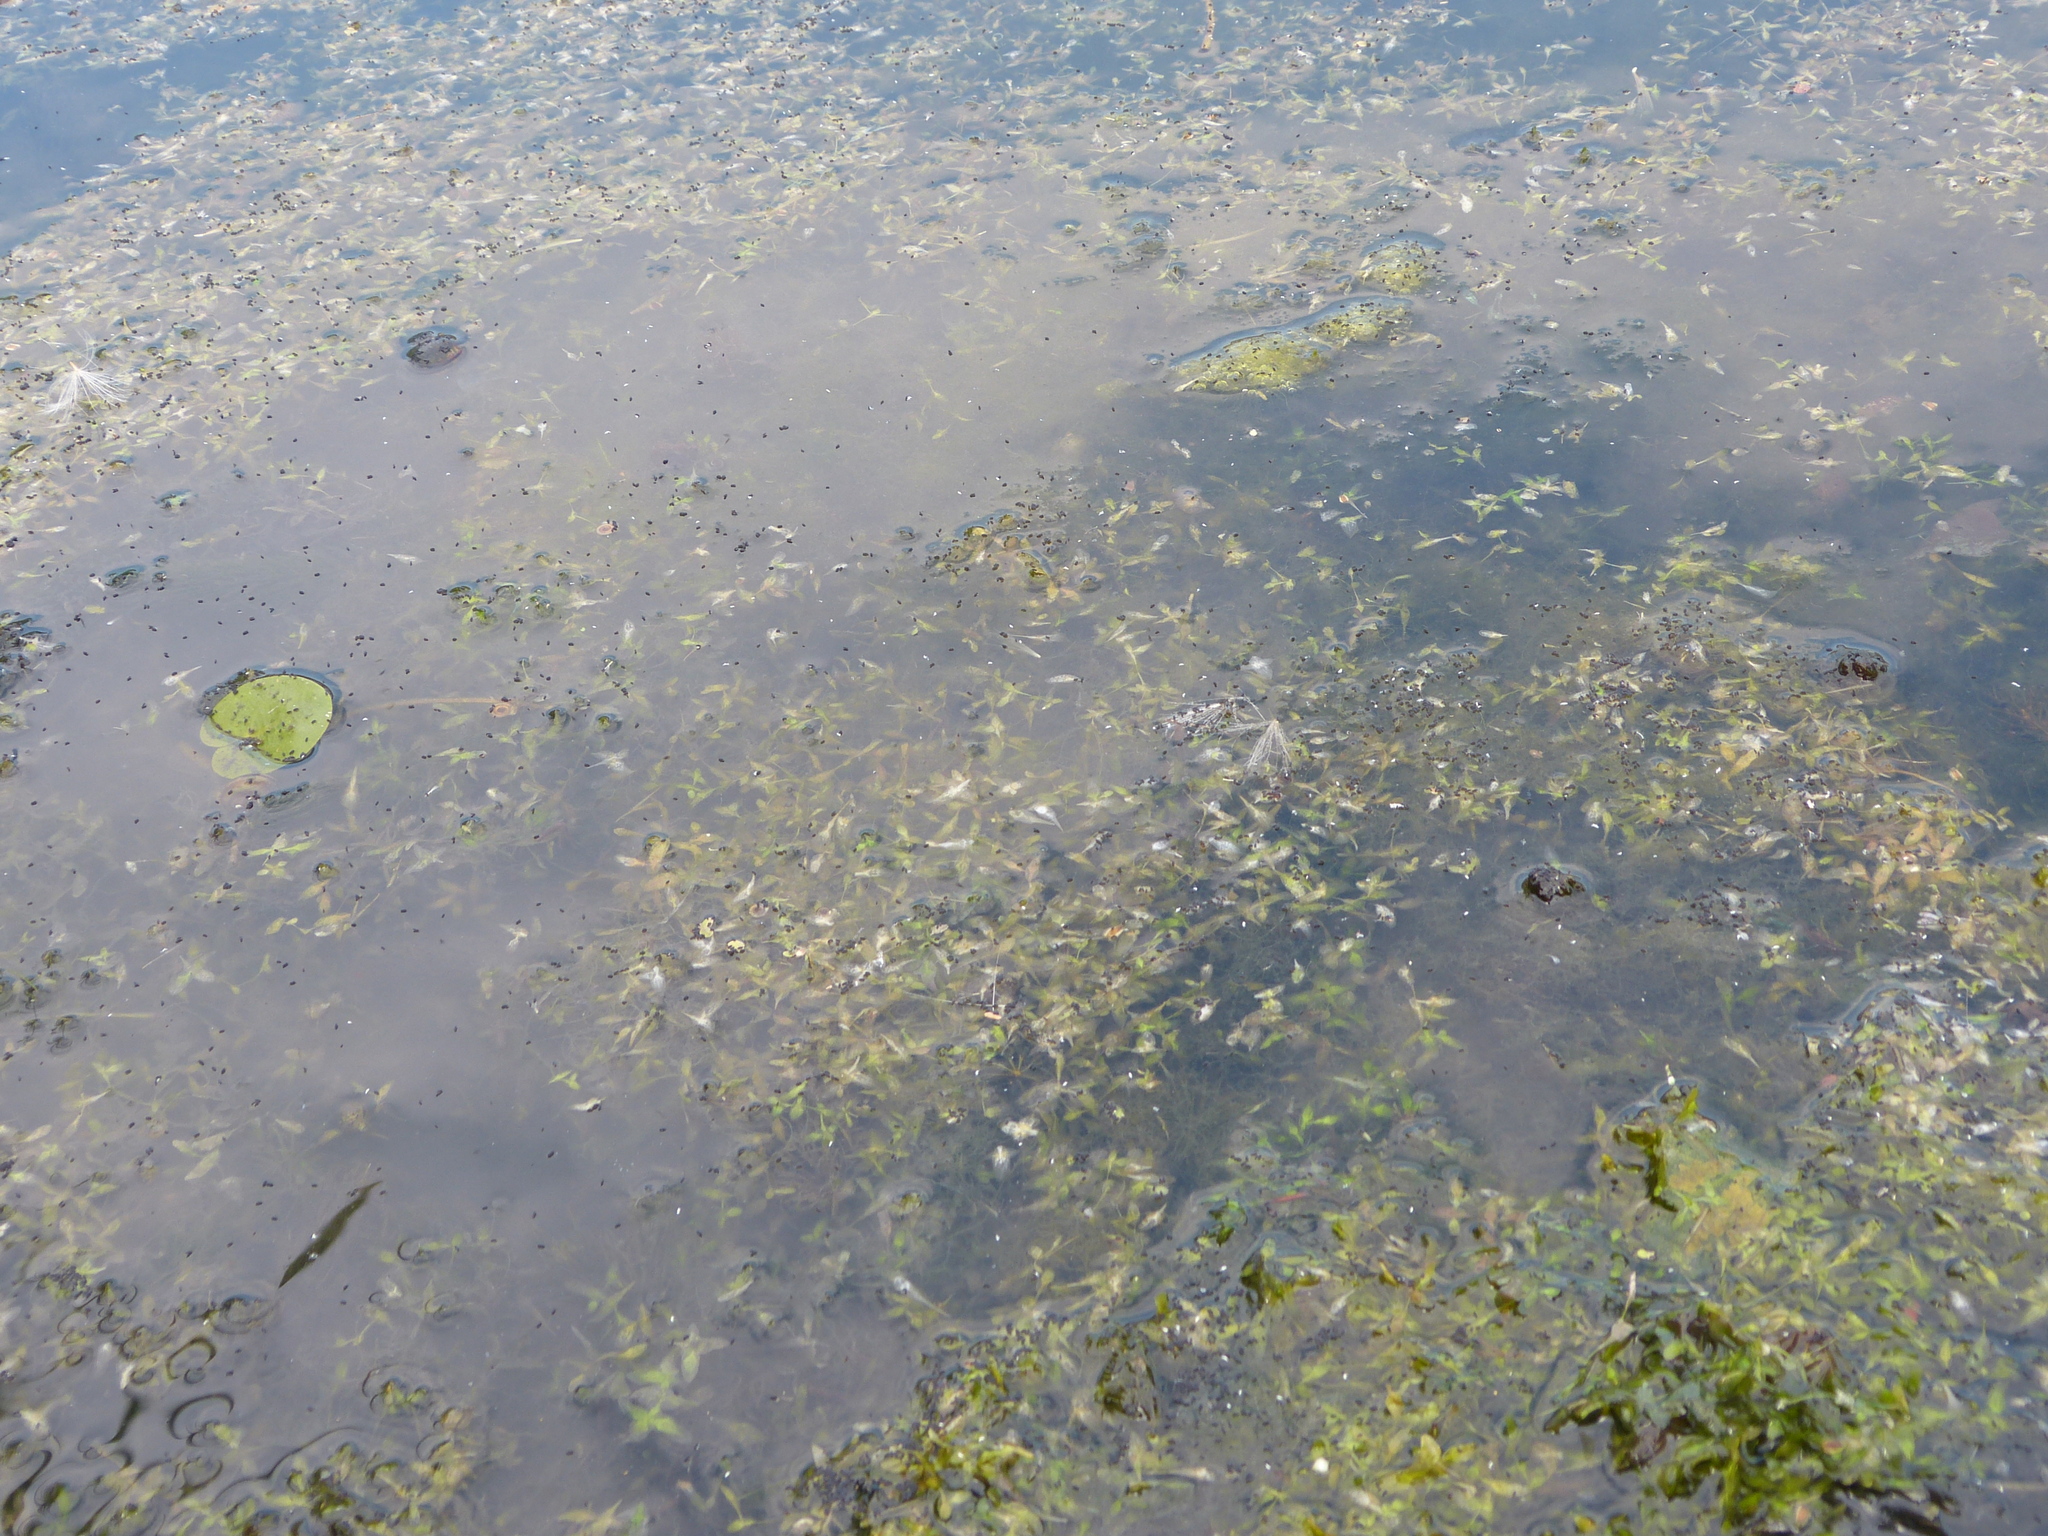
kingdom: Plantae
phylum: Tracheophyta
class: Liliopsida
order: Alismatales
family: Araceae
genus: Lemna
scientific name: Lemna trisulca
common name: Ivy-leaved duckweed
